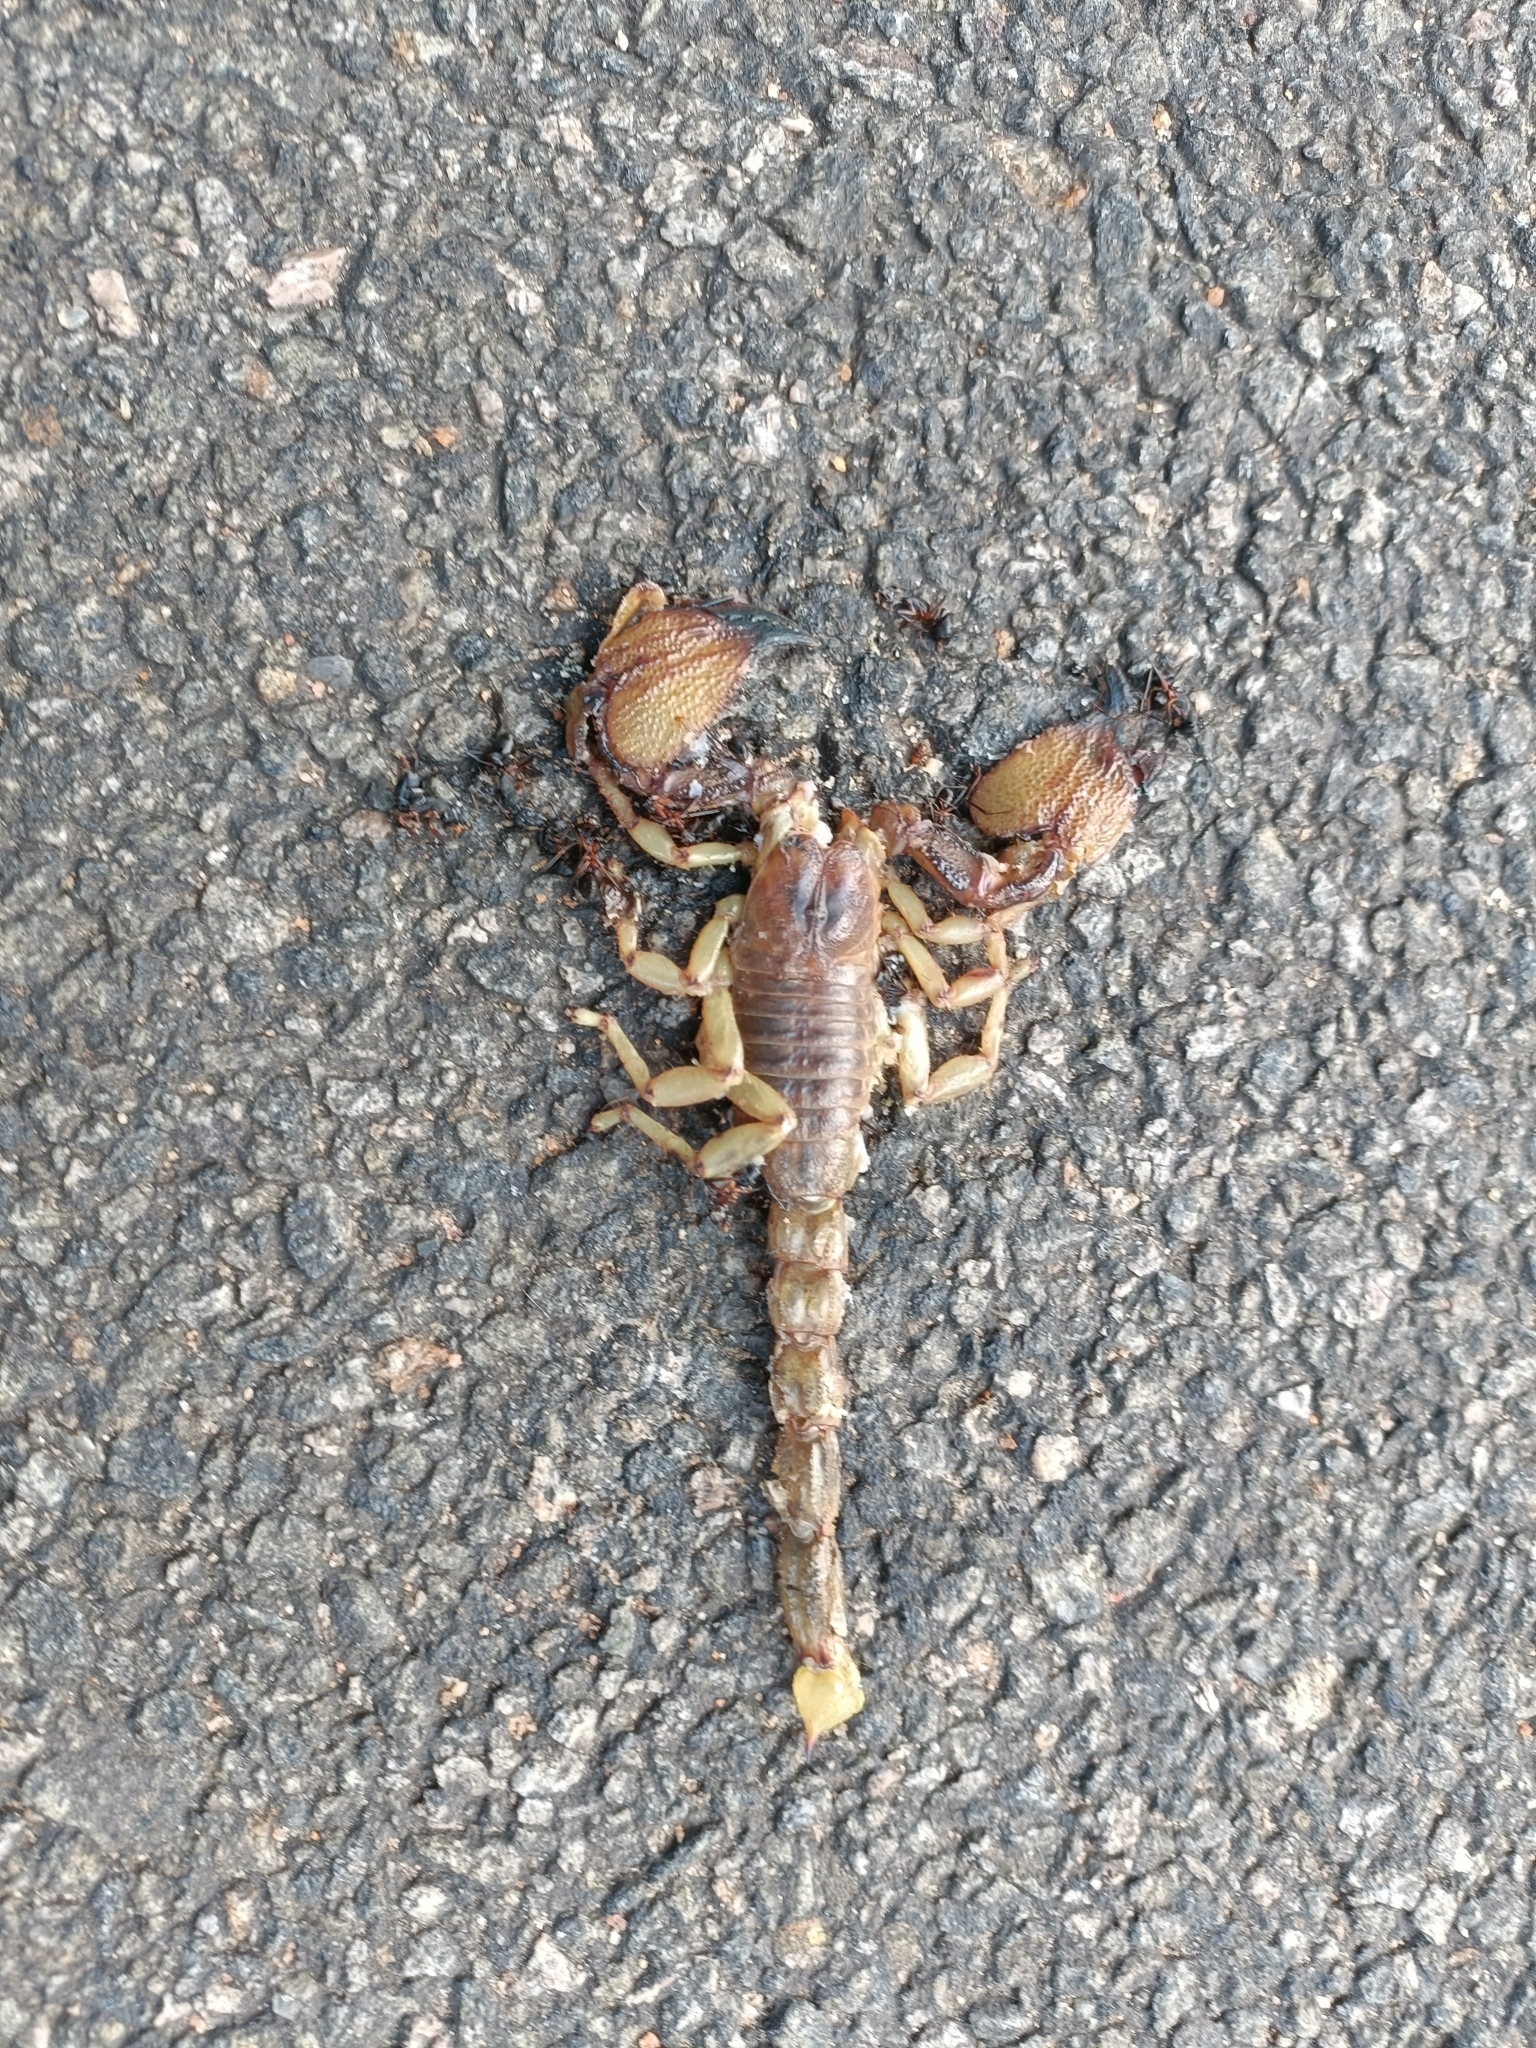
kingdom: Animalia
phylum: Arthropoda
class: Arachnida
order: Scorpiones
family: Scorpionidae
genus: Gigantometrus
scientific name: Gigantometrus swammerdami
